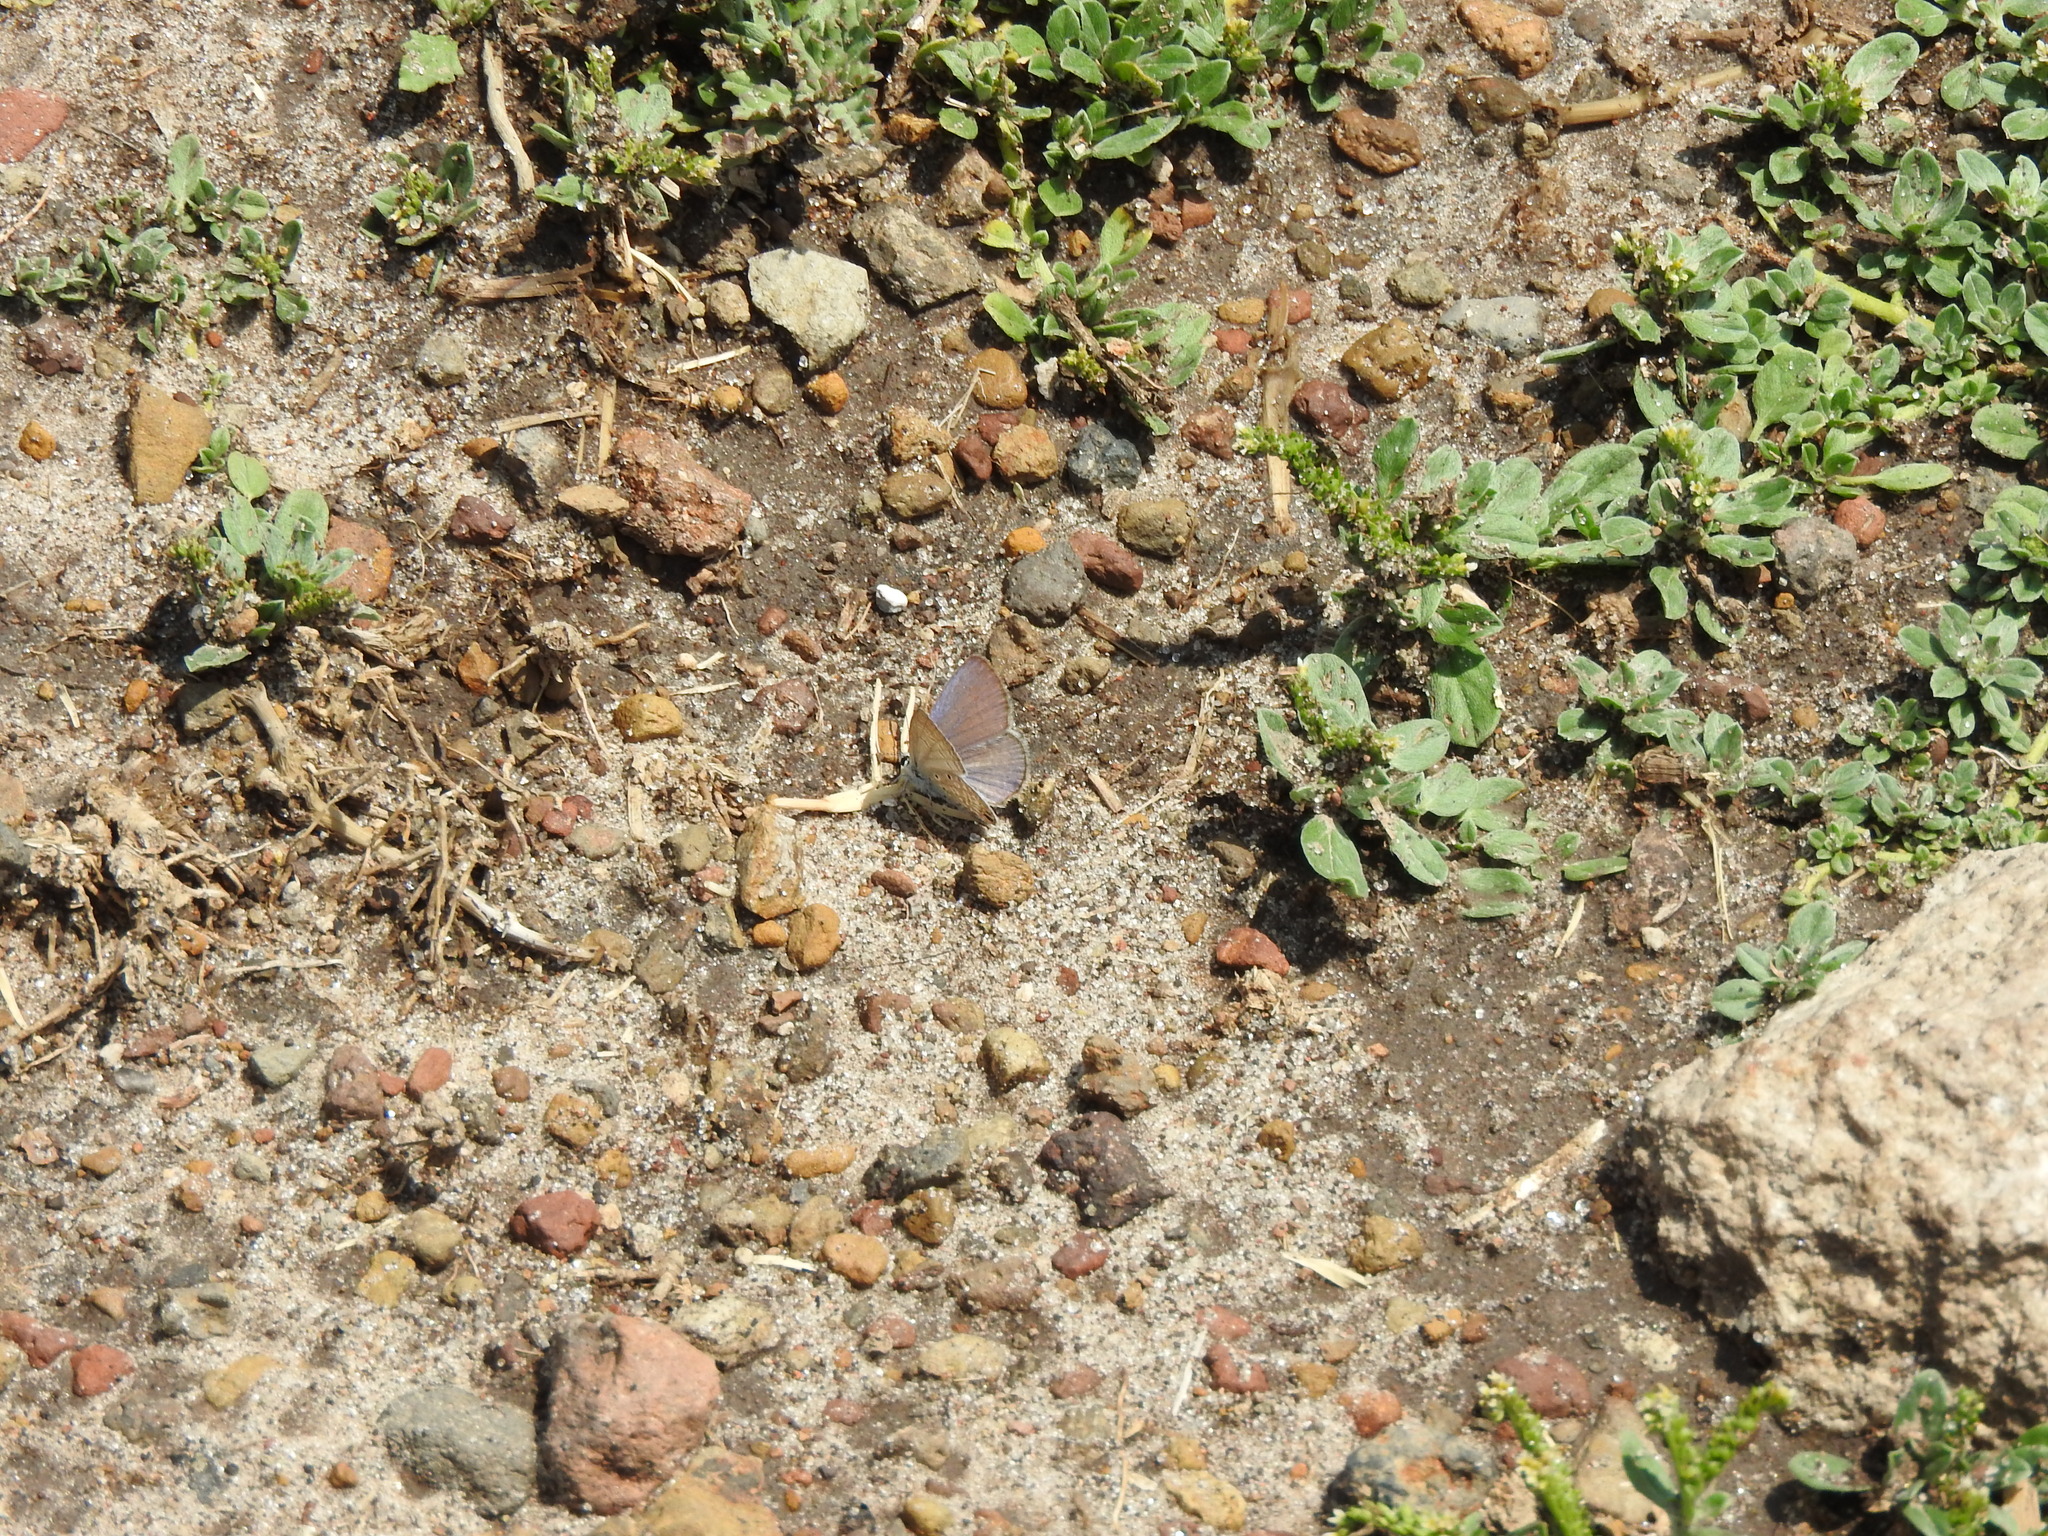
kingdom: Animalia
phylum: Arthropoda
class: Insecta
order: Lepidoptera
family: Lycaenidae
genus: Hemiargus
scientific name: Hemiargus ceraunus
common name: Ceraunus blue
